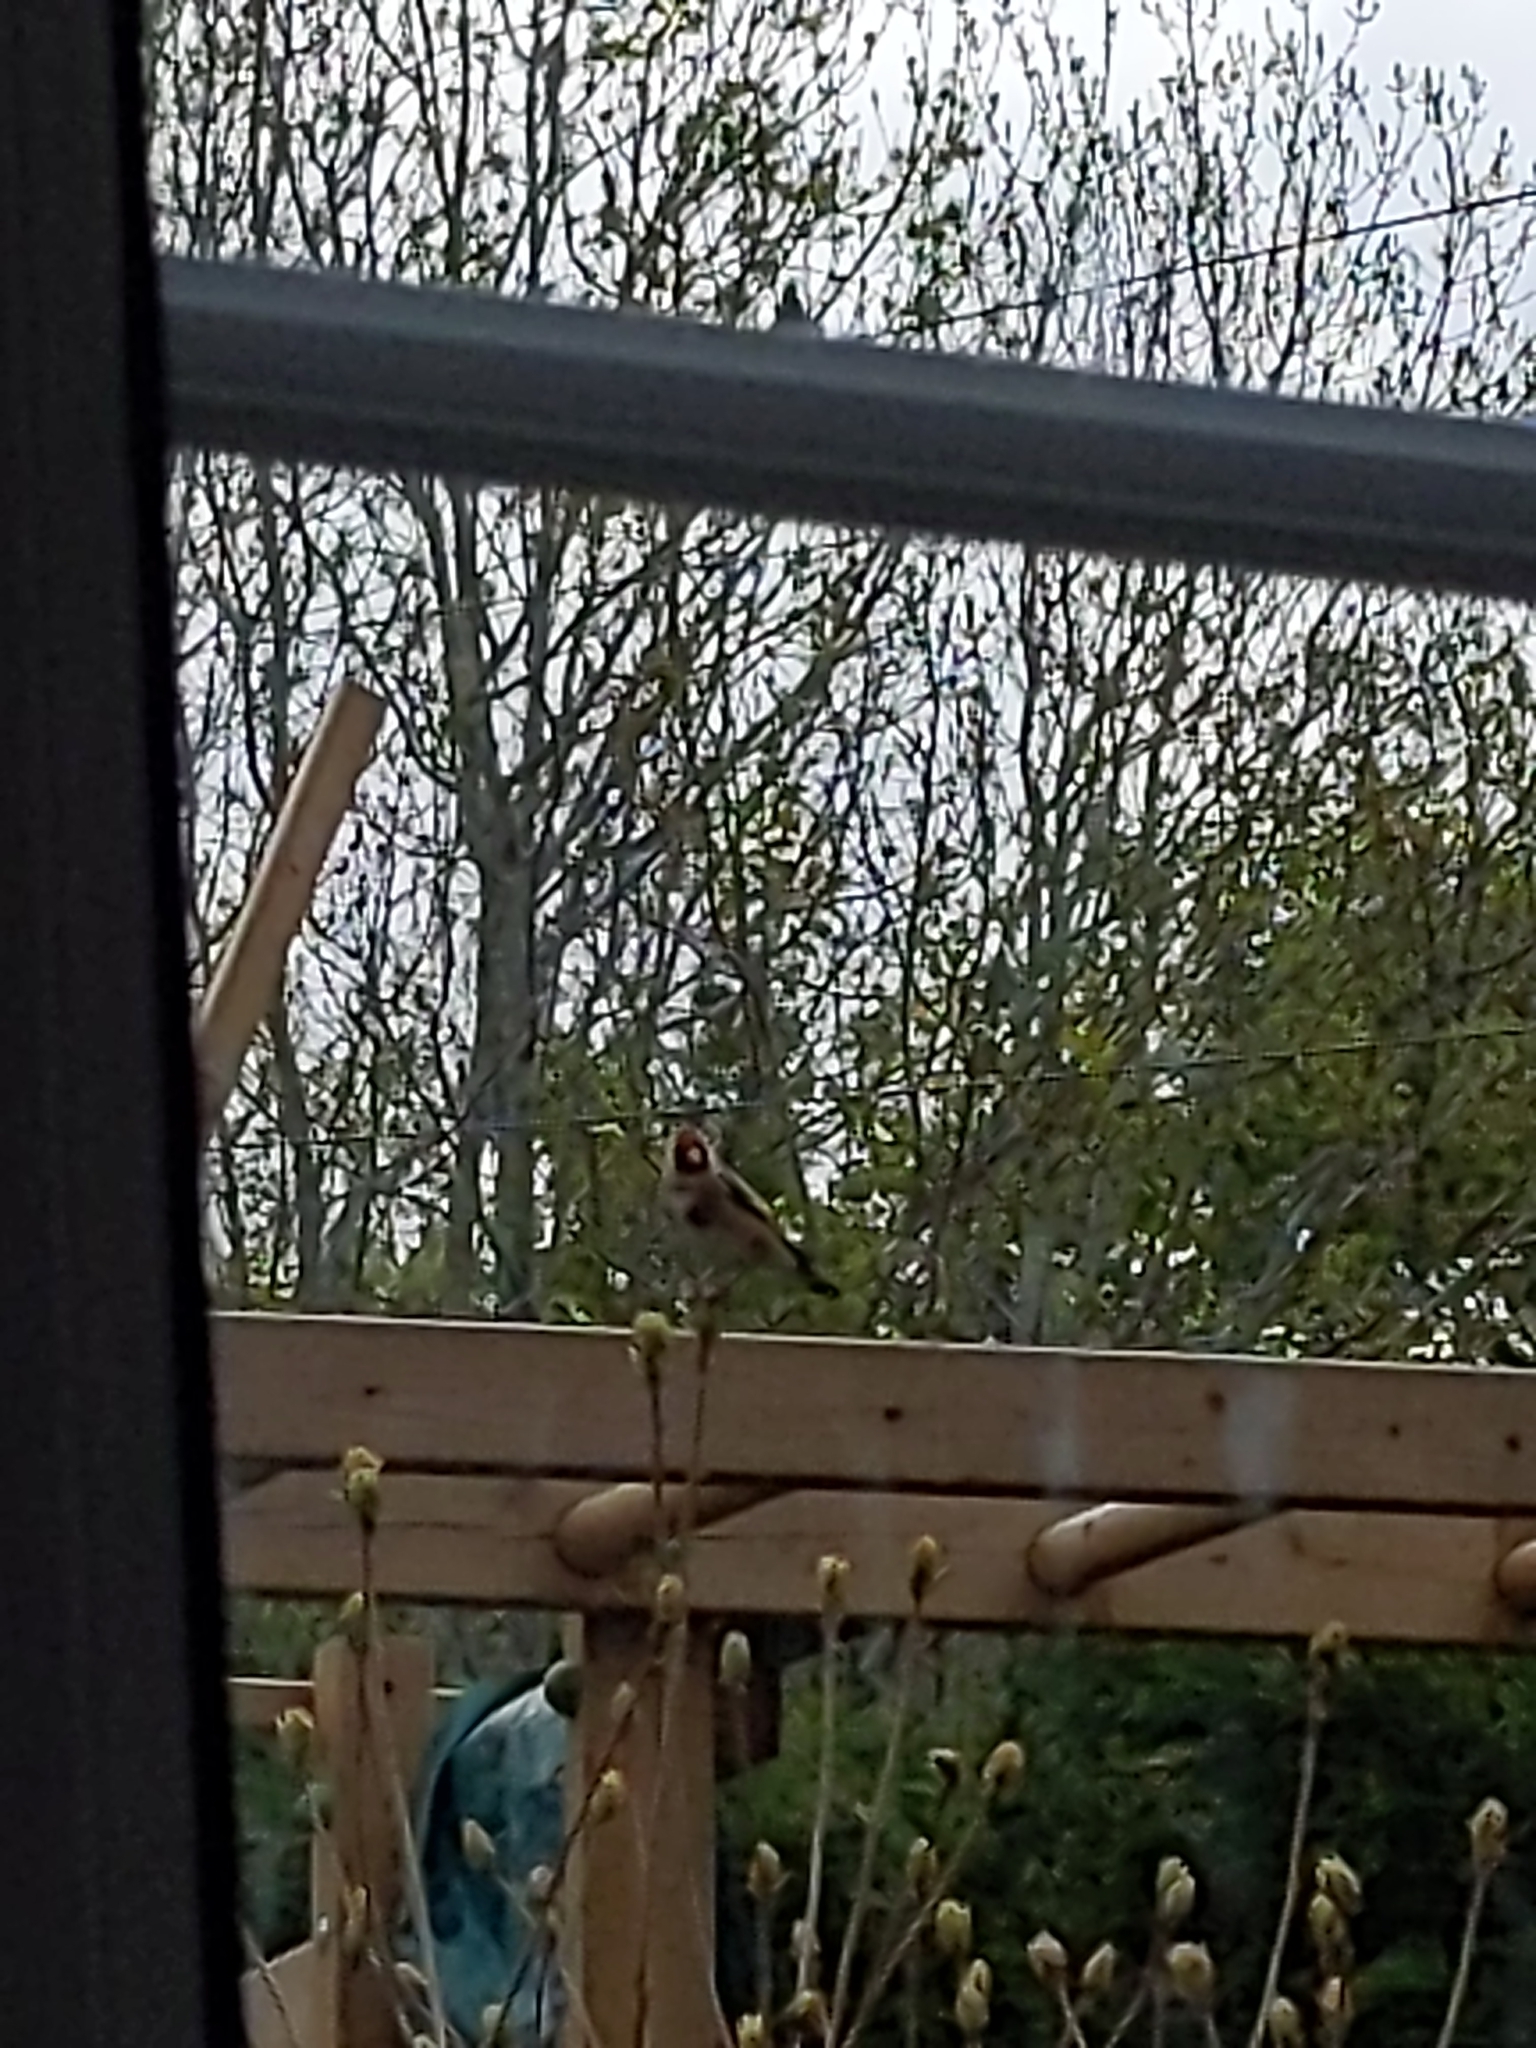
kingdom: Animalia
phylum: Chordata
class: Aves
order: Passeriformes
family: Fringillidae
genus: Carduelis
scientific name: Carduelis carduelis
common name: European goldfinch
